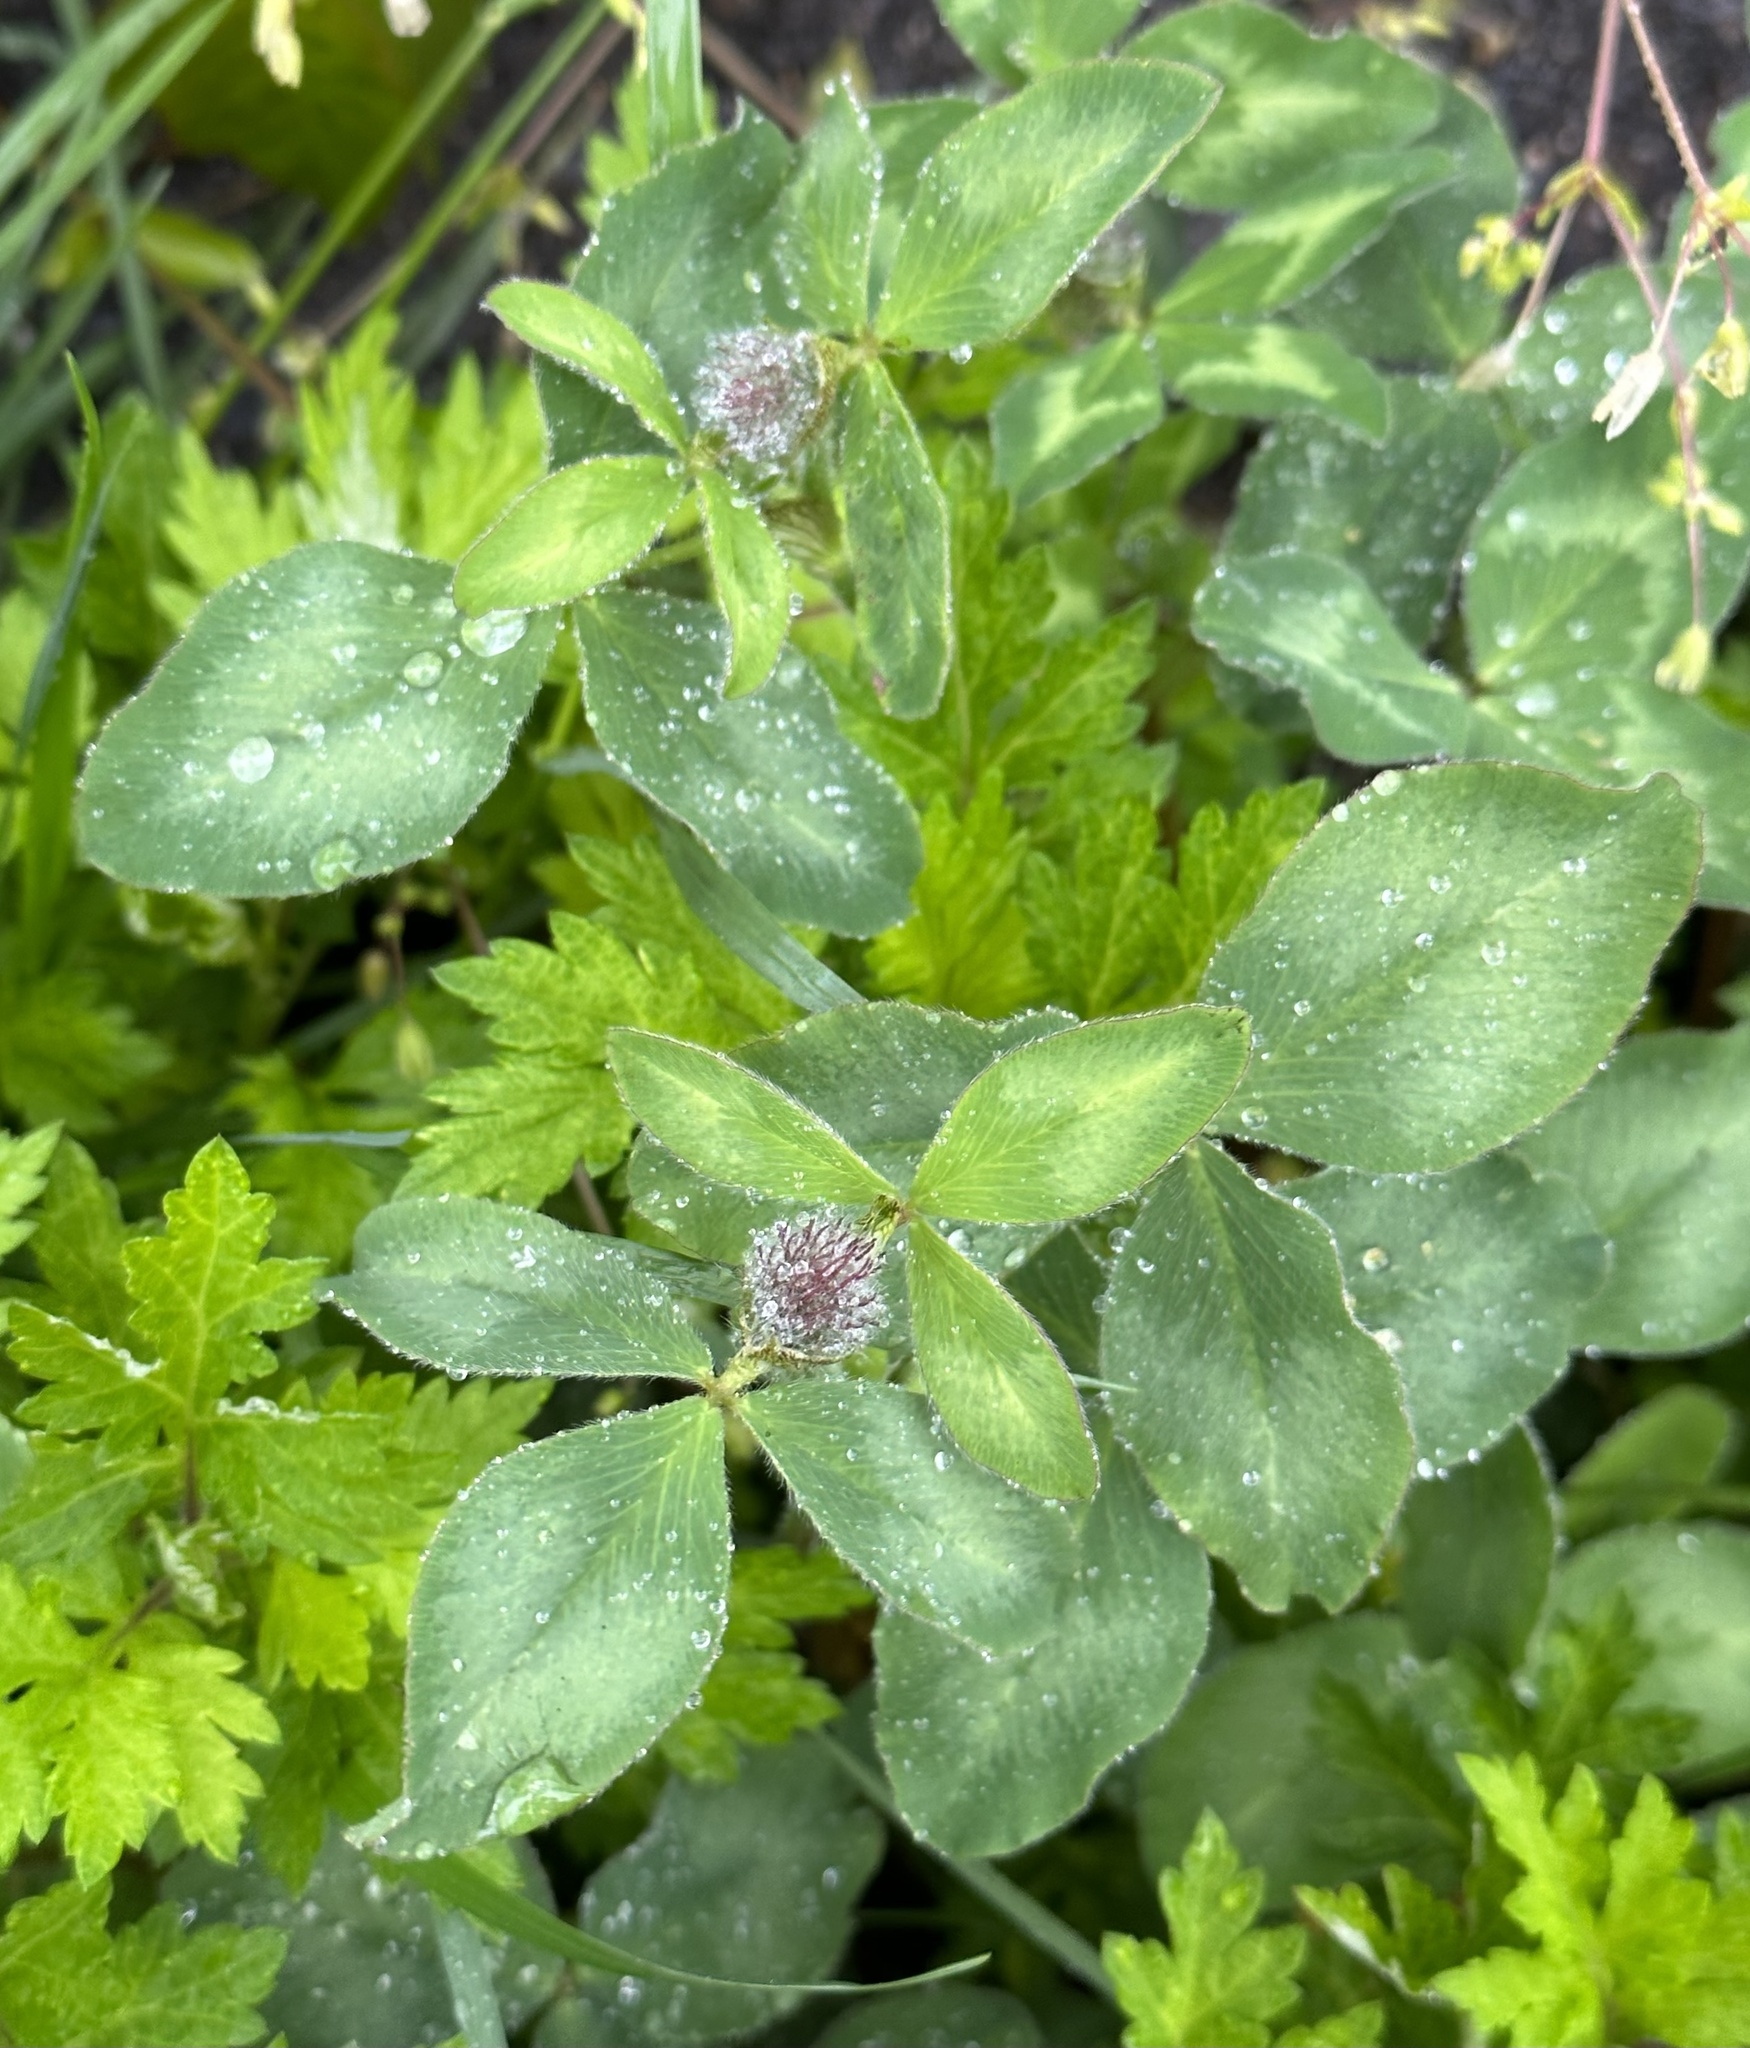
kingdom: Plantae
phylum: Tracheophyta
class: Magnoliopsida
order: Fabales
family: Fabaceae
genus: Trifolium
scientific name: Trifolium pratense
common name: Red clover
